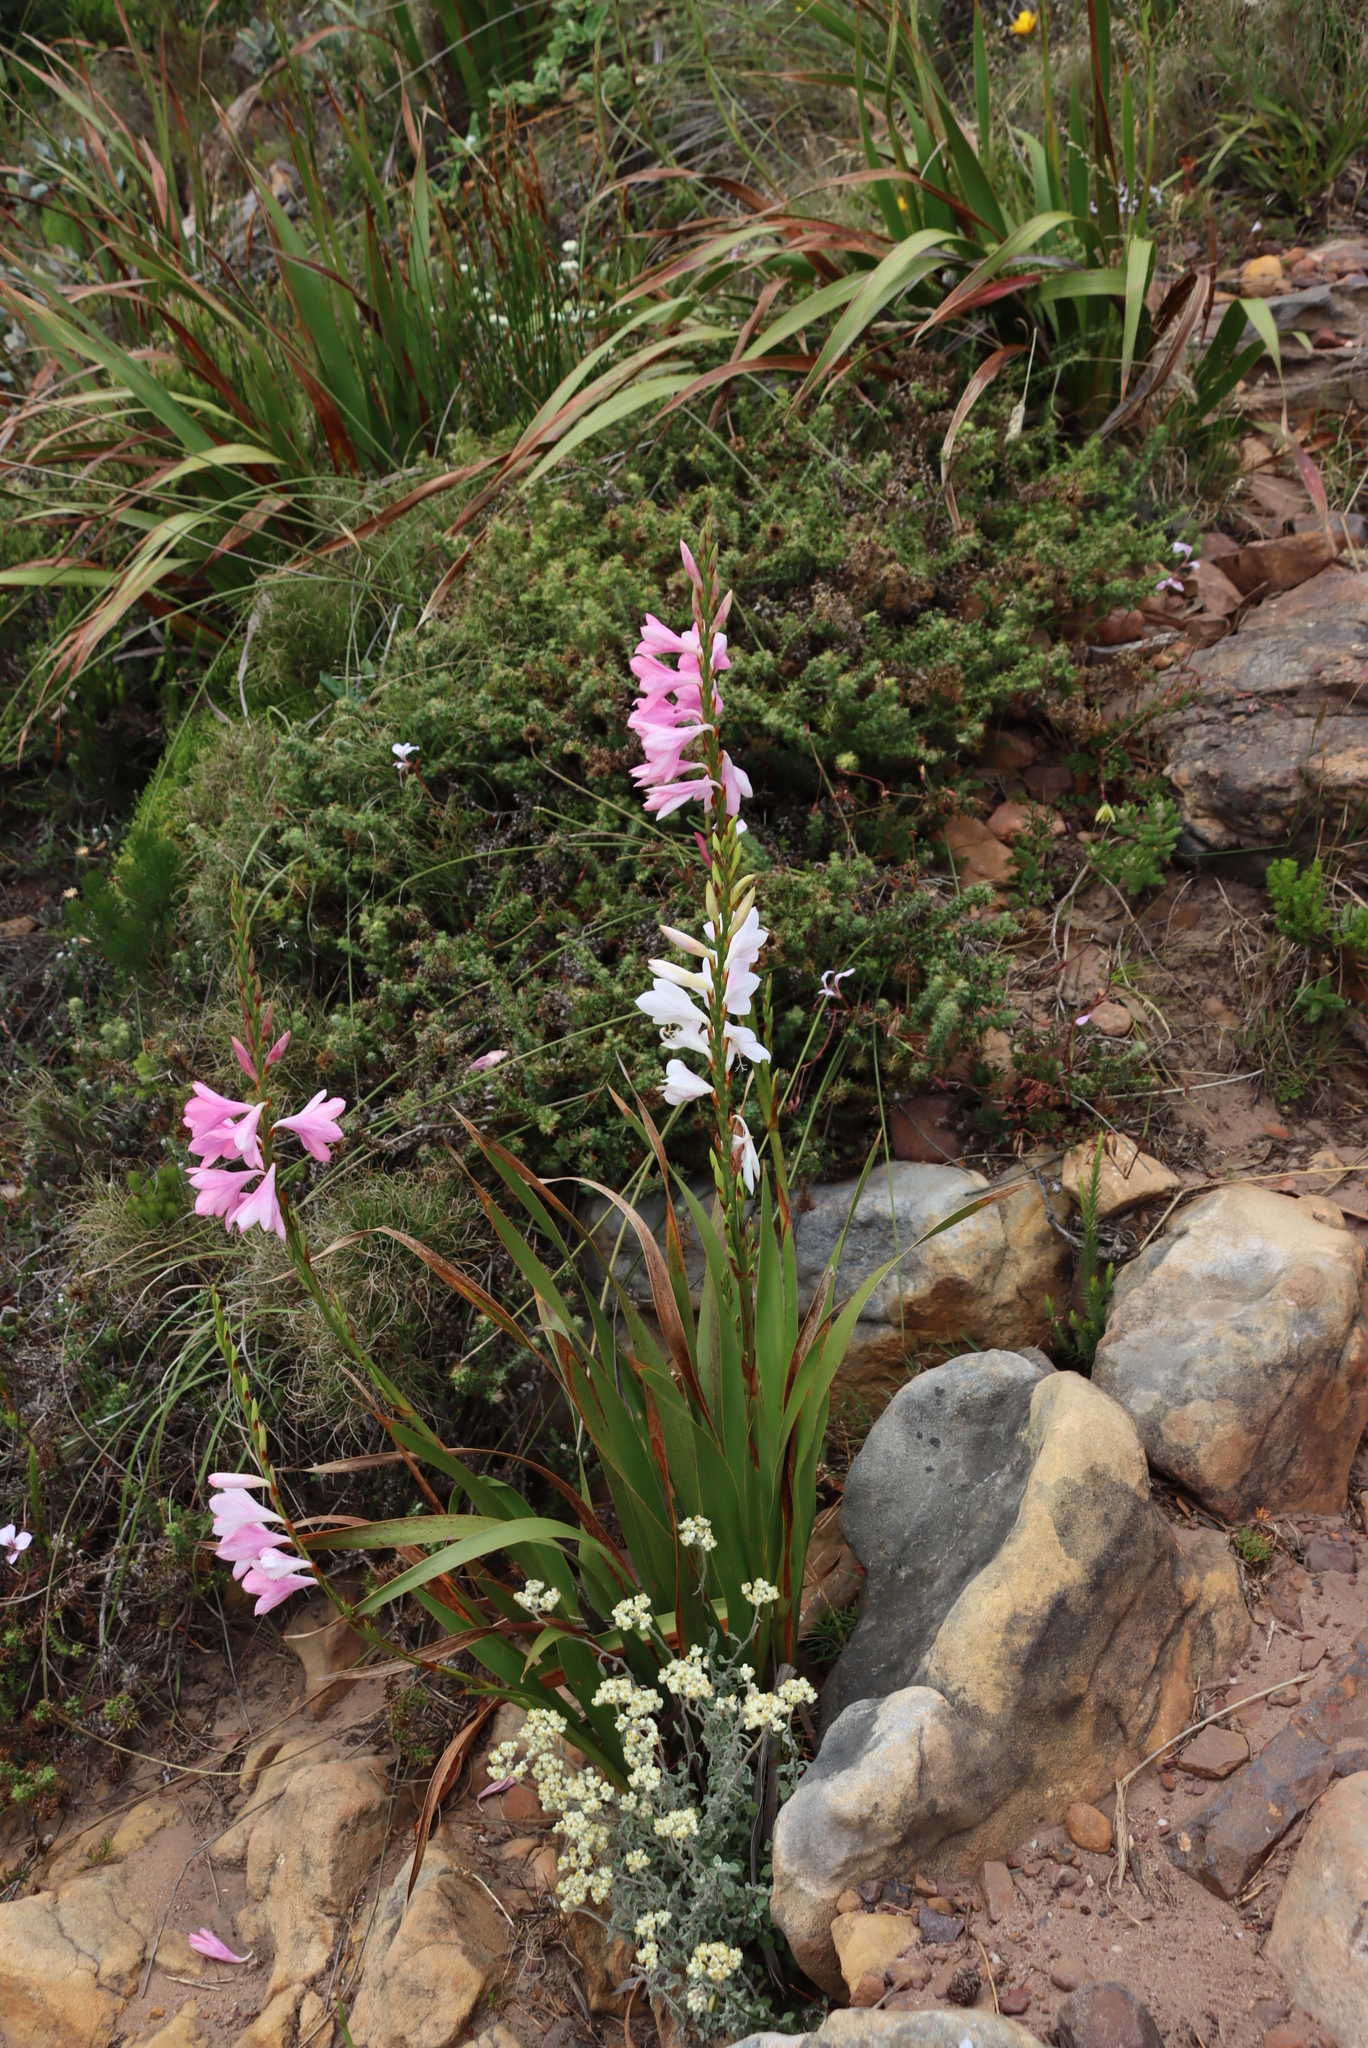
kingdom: Plantae
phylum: Tracheophyta
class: Liliopsida
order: Asparagales
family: Iridaceae
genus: Watsonia
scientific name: Watsonia borbonica
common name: Bugle-lily
